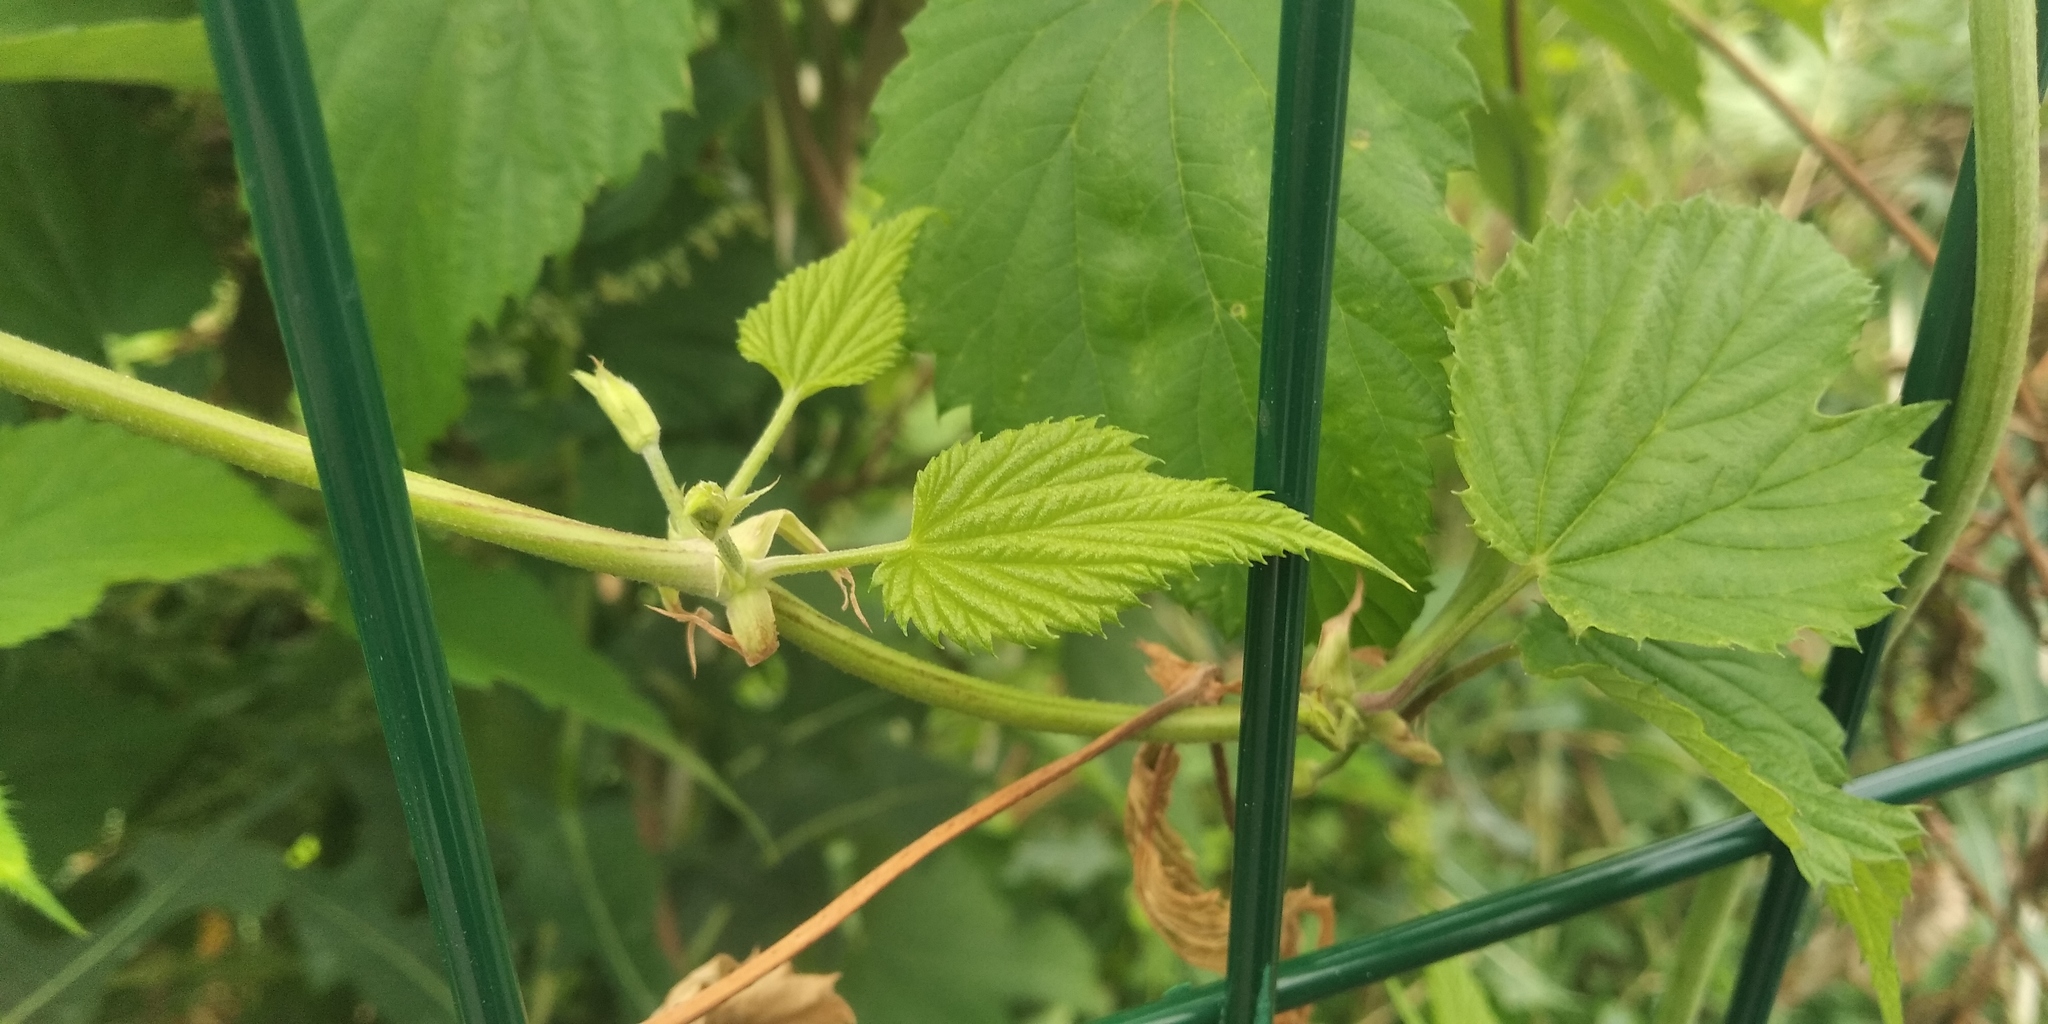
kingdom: Plantae
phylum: Tracheophyta
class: Magnoliopsida
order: Rosales
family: Cannabaceae
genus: Humulus
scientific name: Humulus lupulus
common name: Hop
